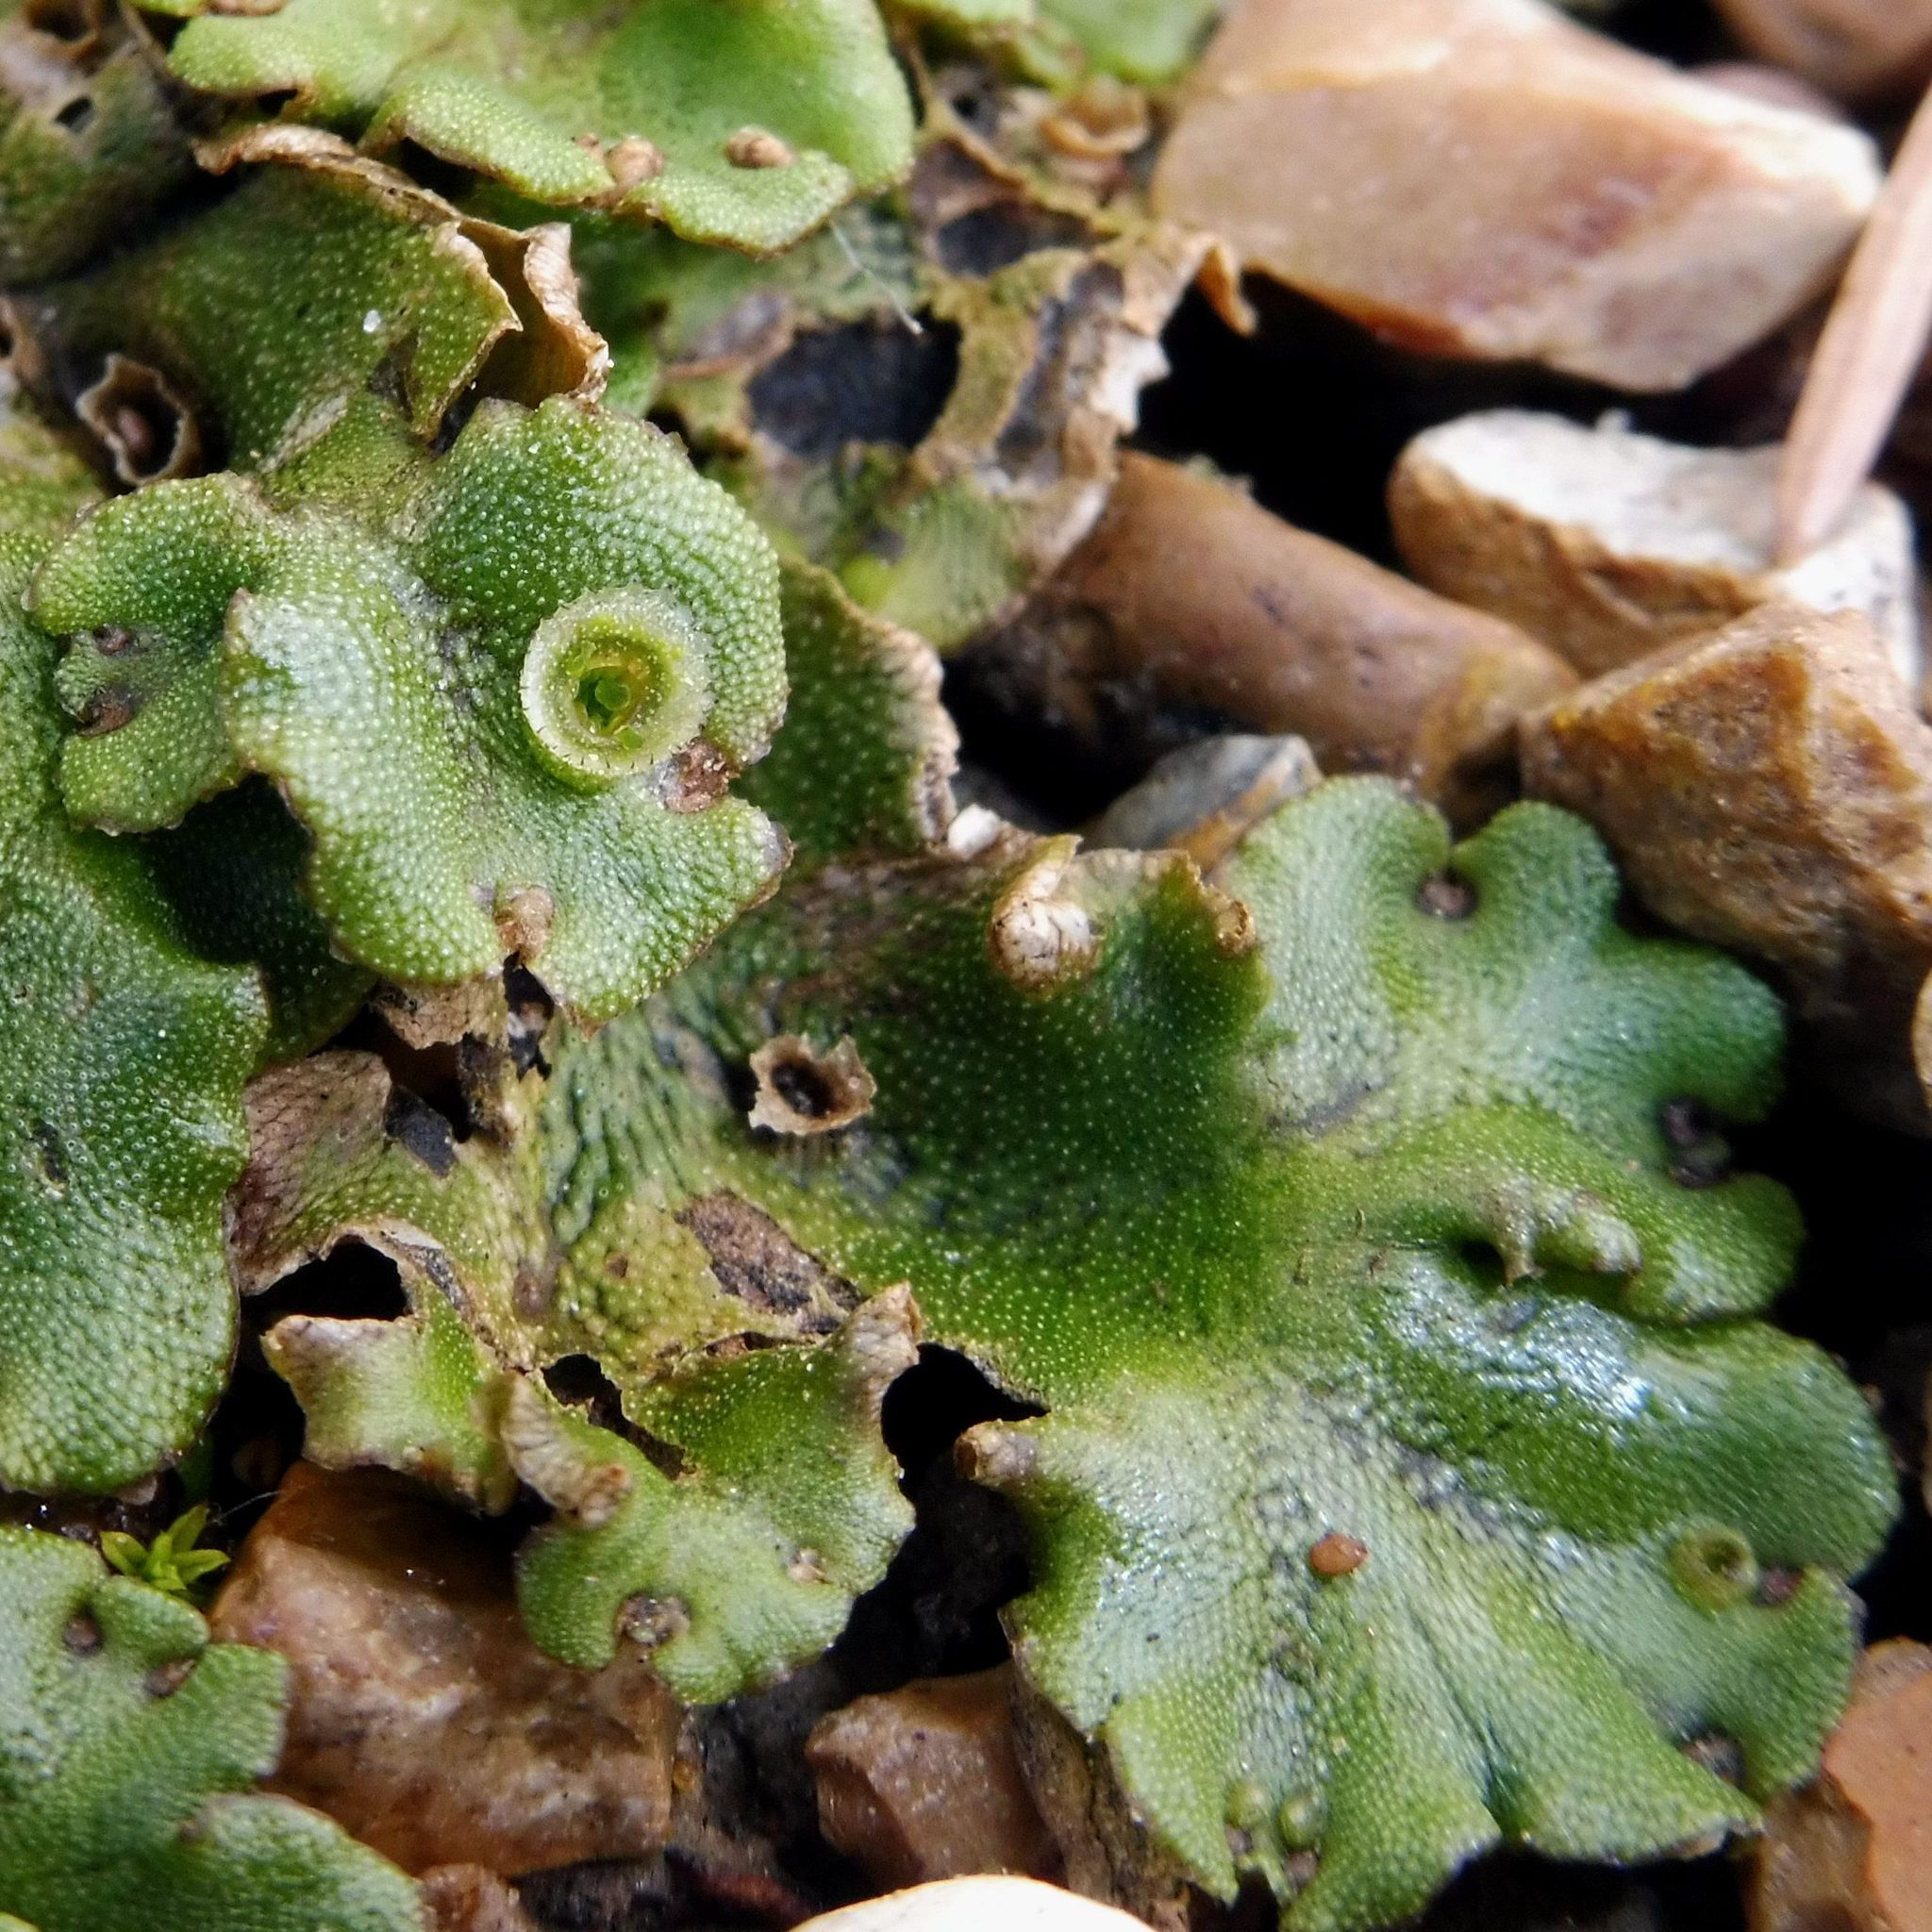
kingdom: Plantae
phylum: Marchantiophyta
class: Marchantiopsida
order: Marchantiales
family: Marchantiaceae
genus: Marchantia
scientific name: Marchantia polymorpha
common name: Common liverwort
